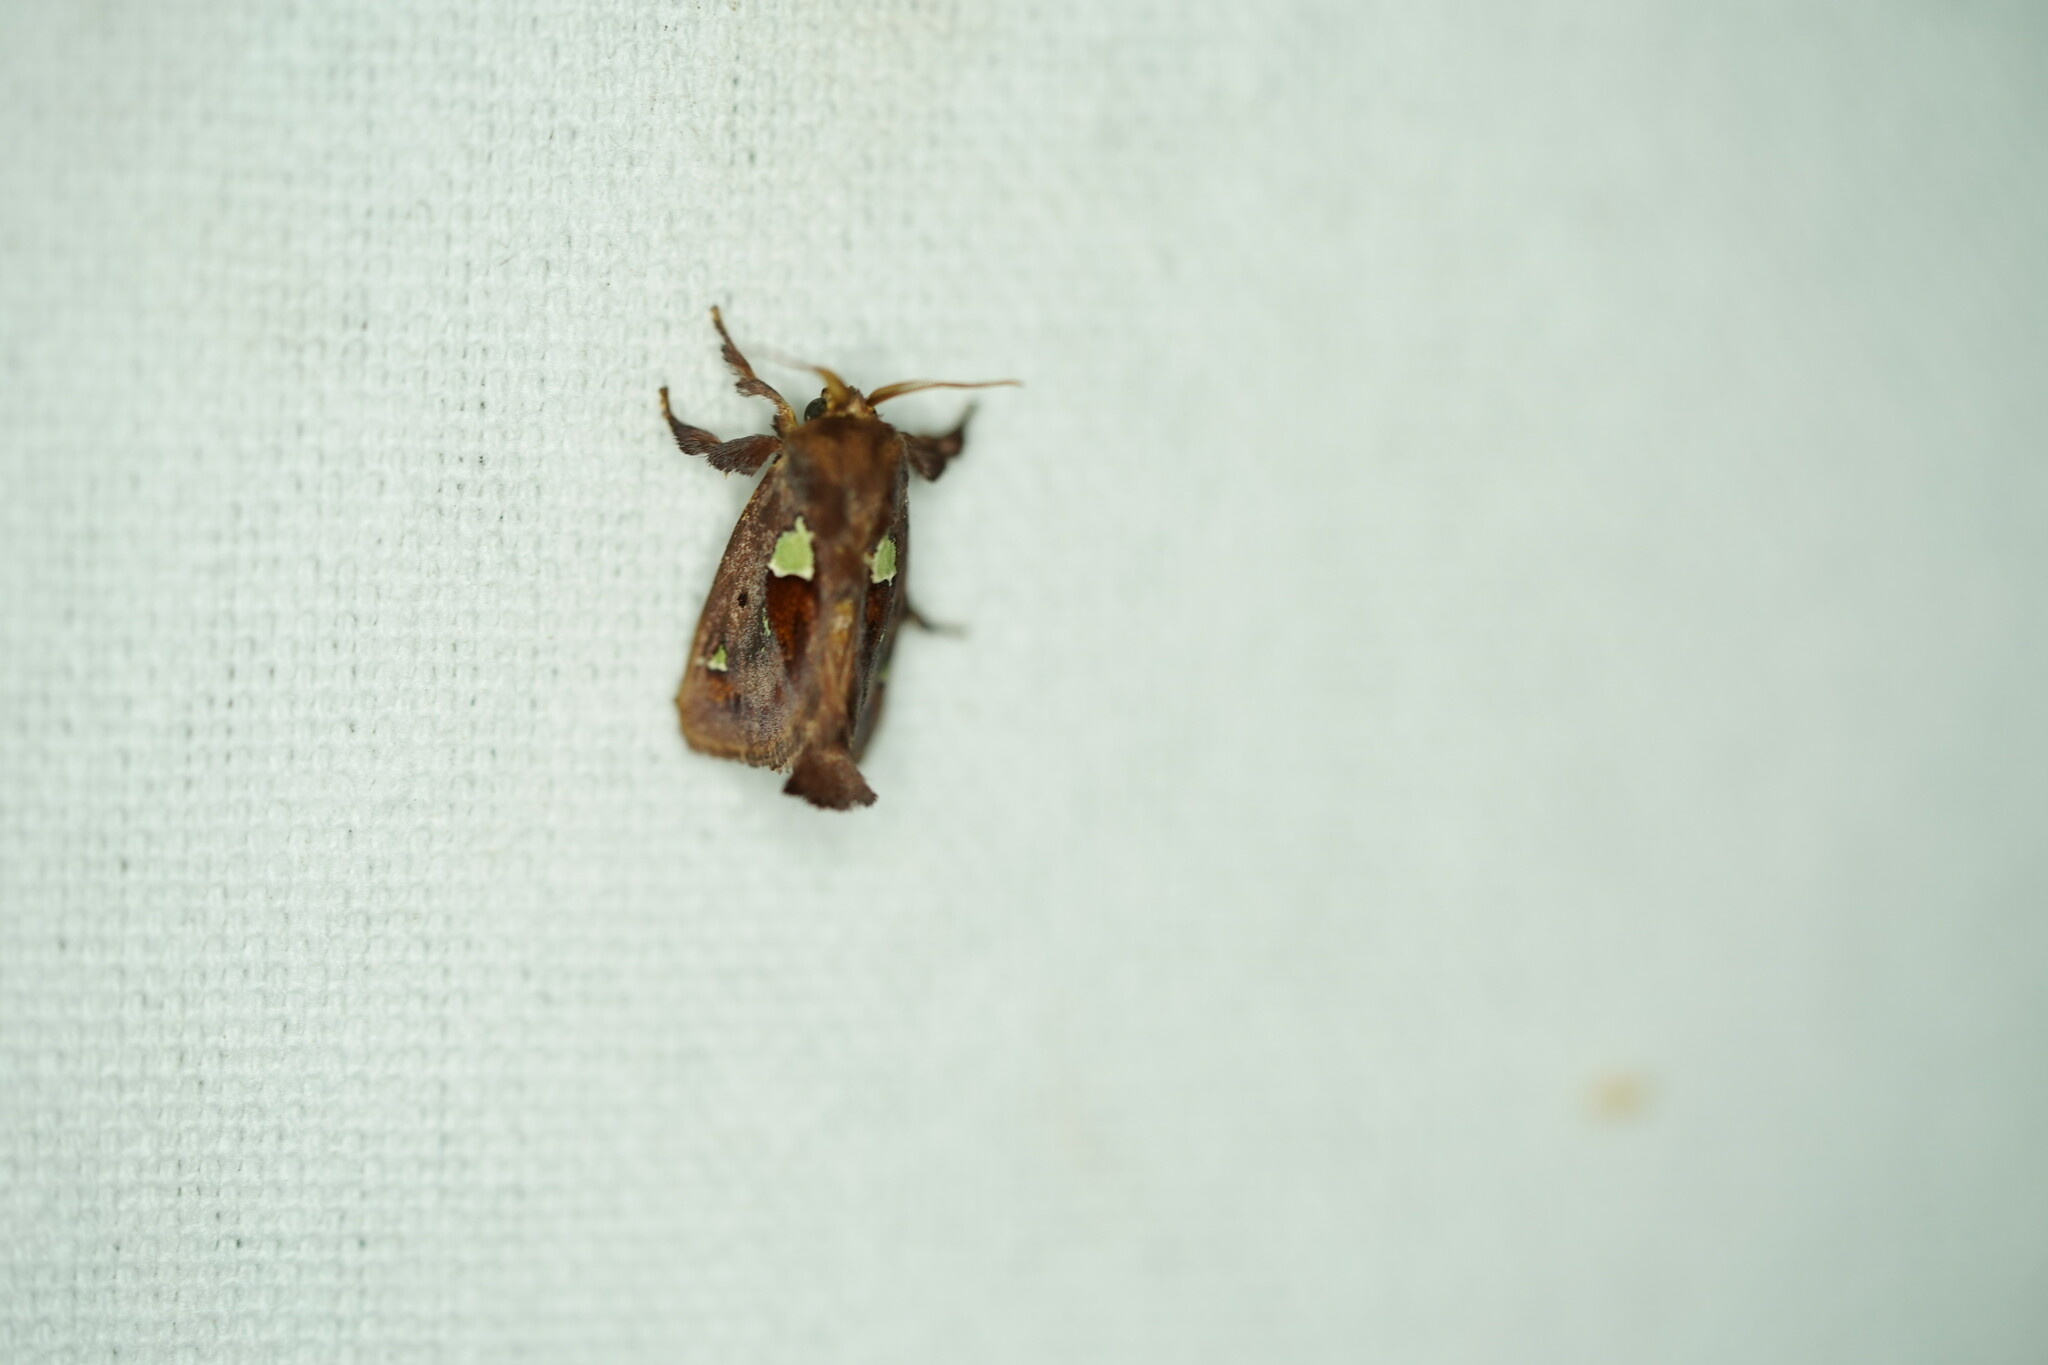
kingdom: Animalia
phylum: Arthropoda
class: Insecta
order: Lepidoptera
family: Limacodidae
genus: Euclea
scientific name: Euclea delphinii
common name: Spiny oak-slug moth
